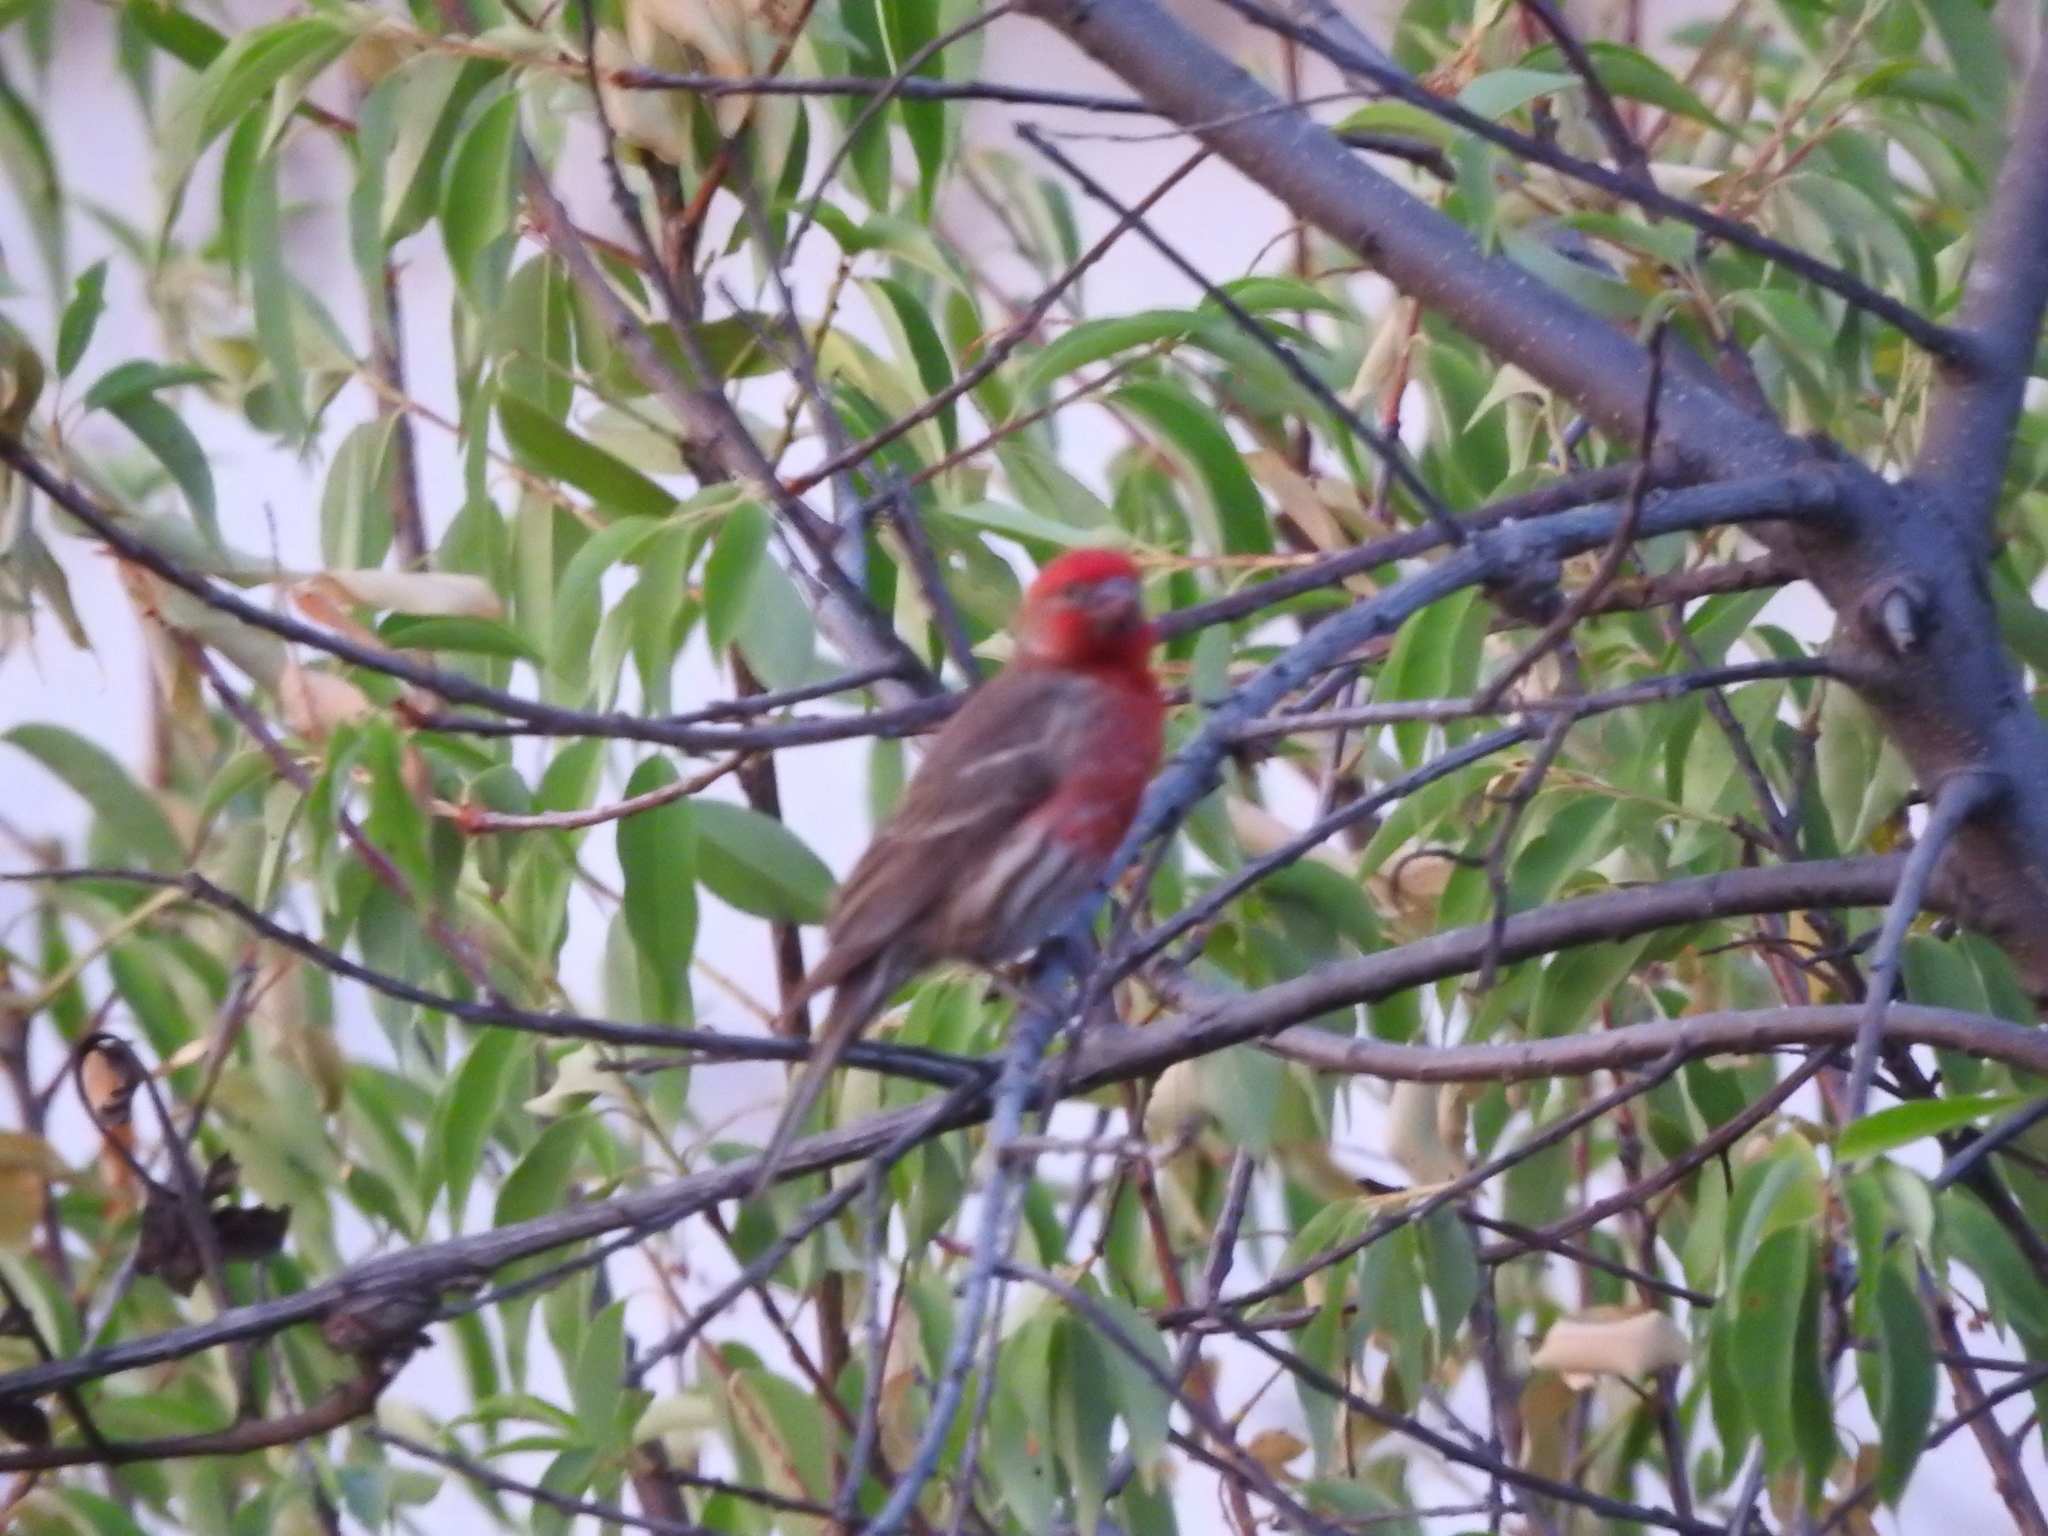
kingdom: Animalia
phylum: Chordata
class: Aves
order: Passeriformes
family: Fringillidae
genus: Haemorhous
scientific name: Haemorhous mexicanus
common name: House finch
